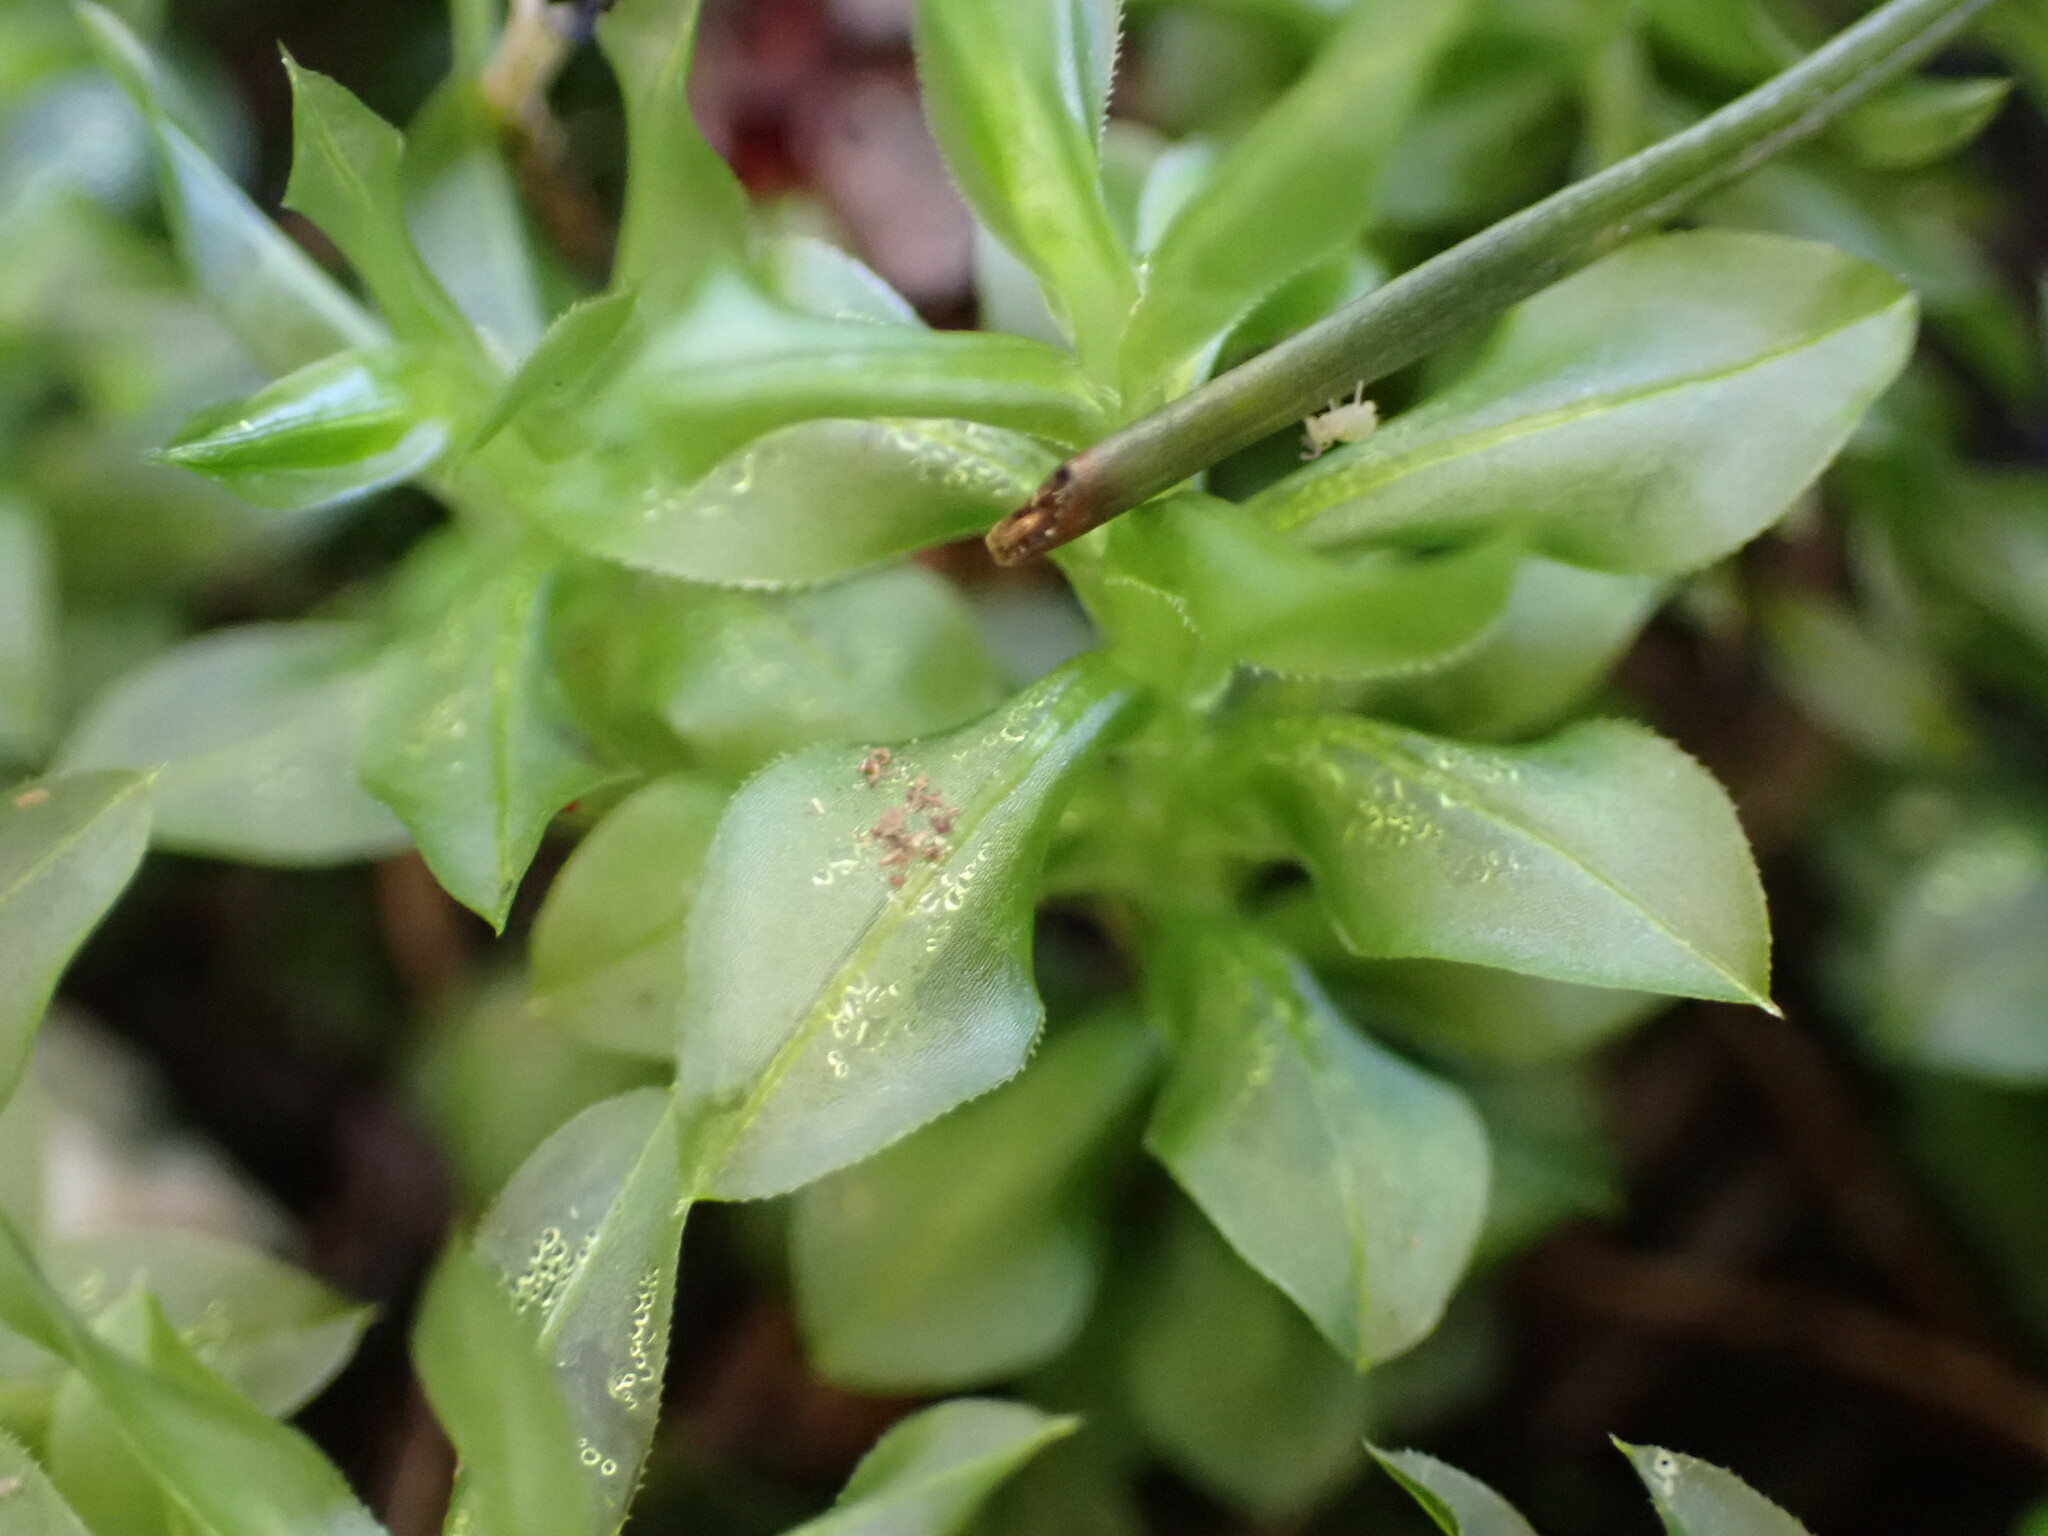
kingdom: Plantae
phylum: Bryophyta
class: Bryopsida
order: Bryales
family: Mniaceae
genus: Plagiomnium
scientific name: Plagiomnium insigne
